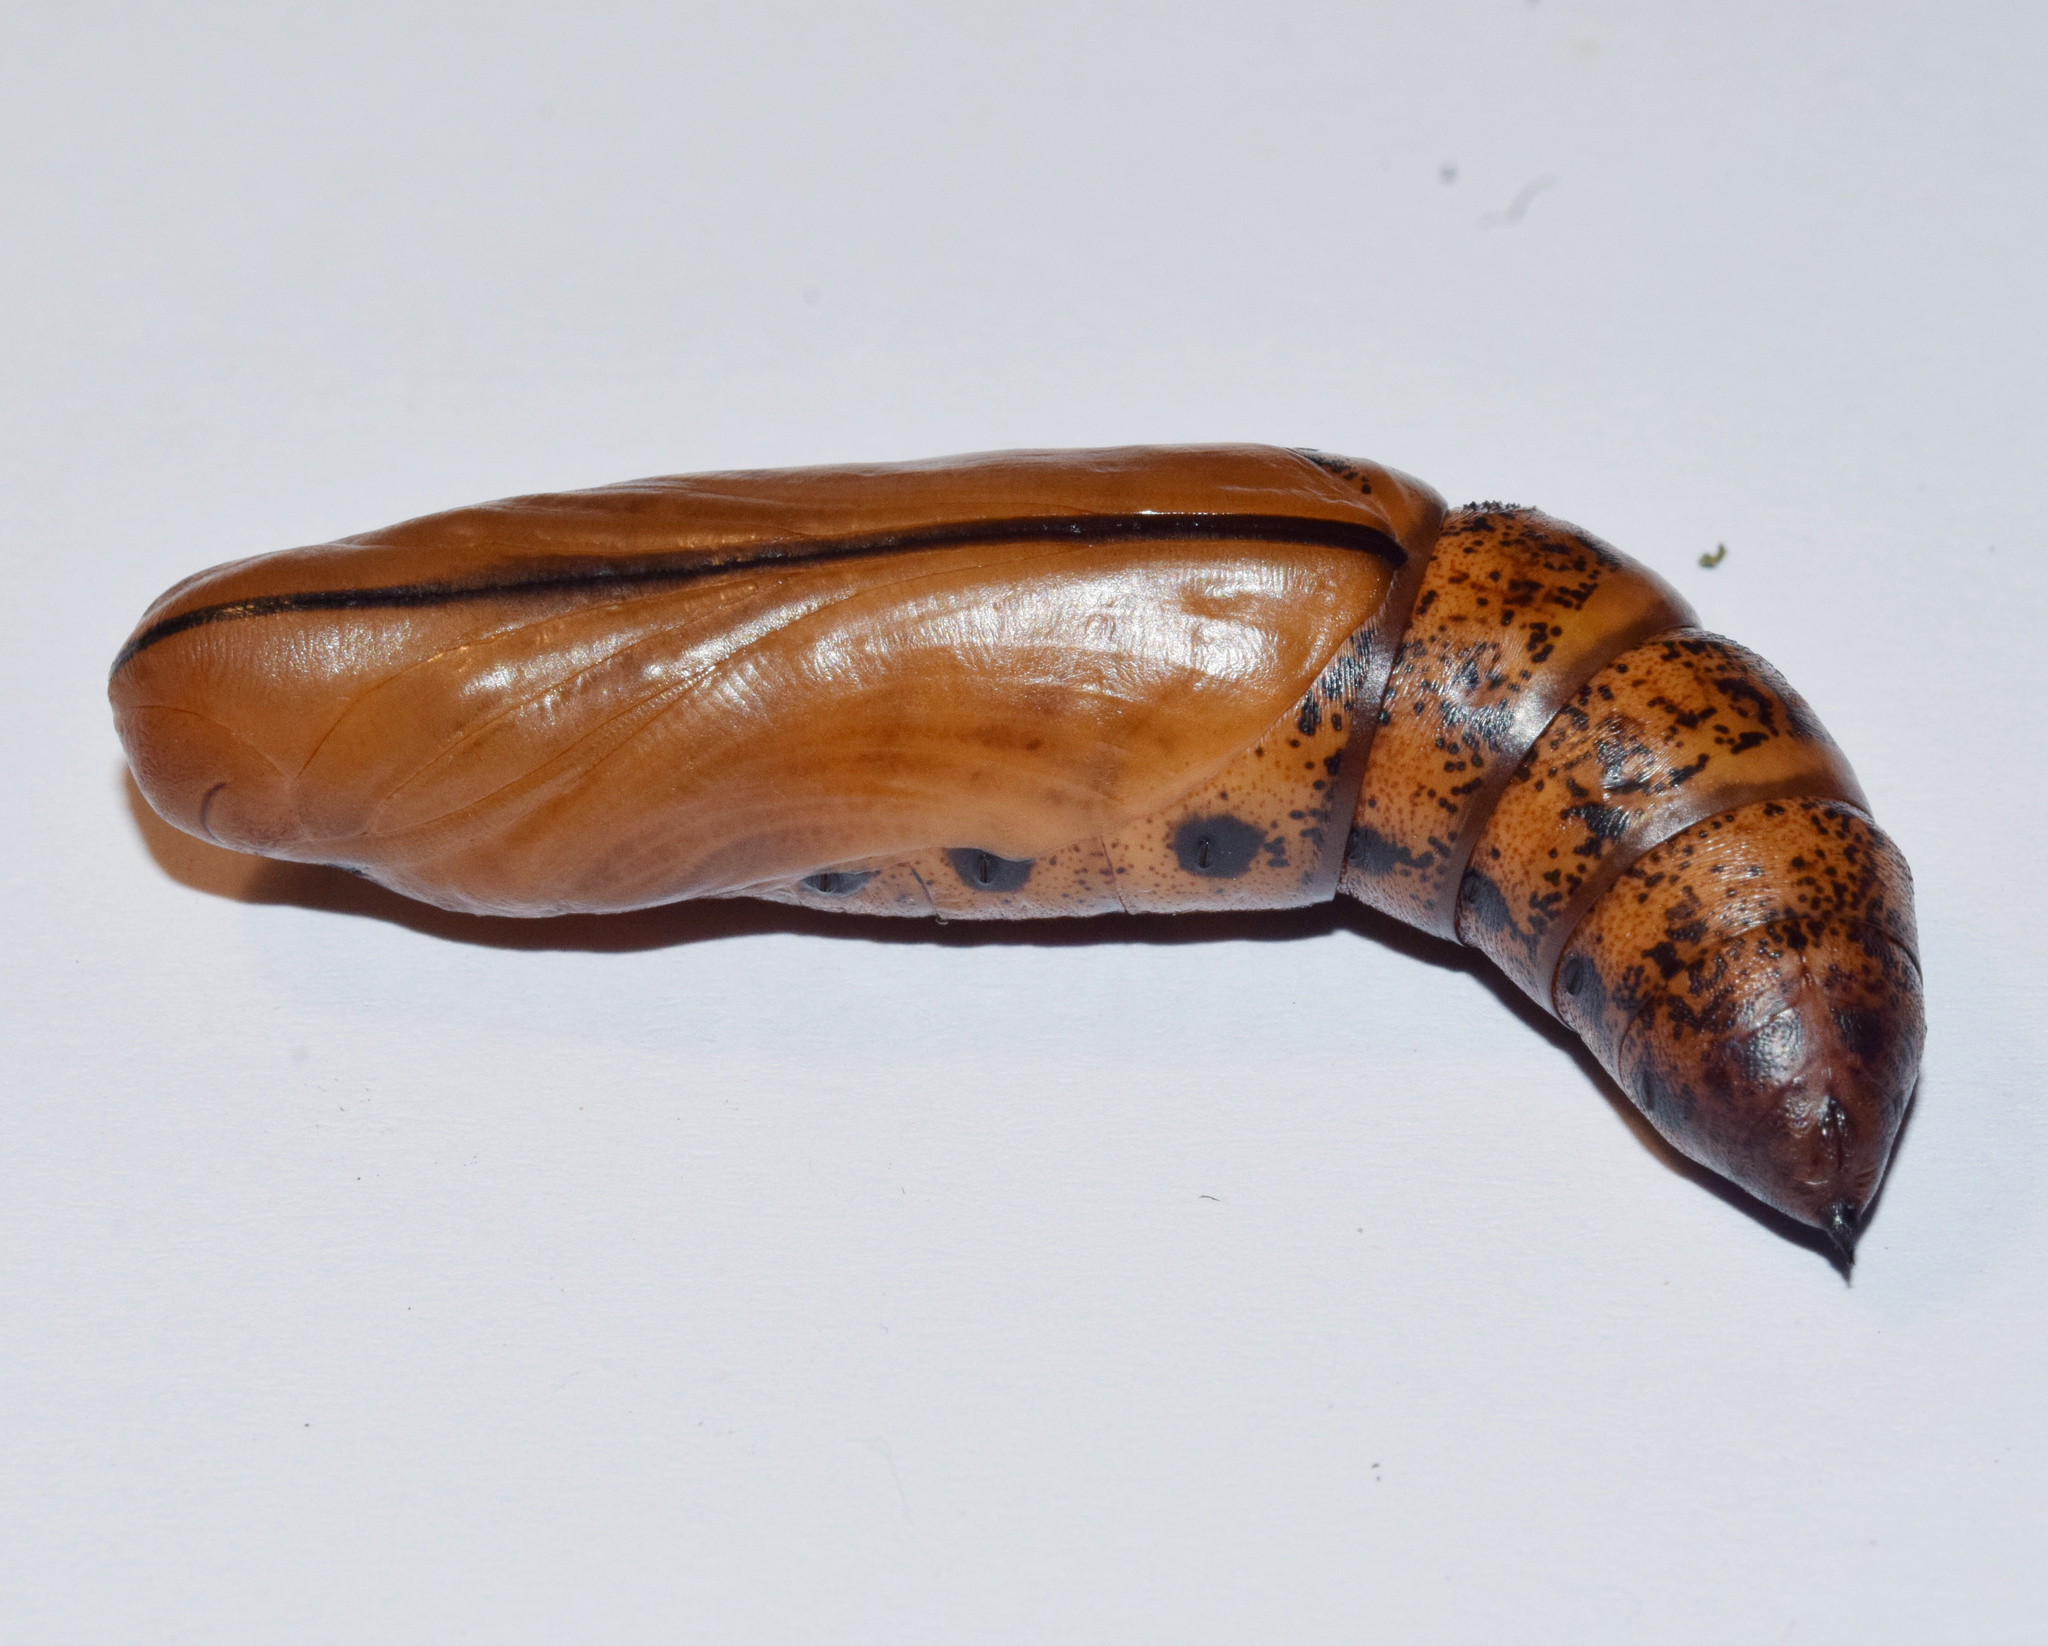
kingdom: Animalia
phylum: Arthropoda
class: Insecta
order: Lepidoptera
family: Sphingidae
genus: Daphnis
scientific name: Daphnis nerii
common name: Oleander hawk-moth
